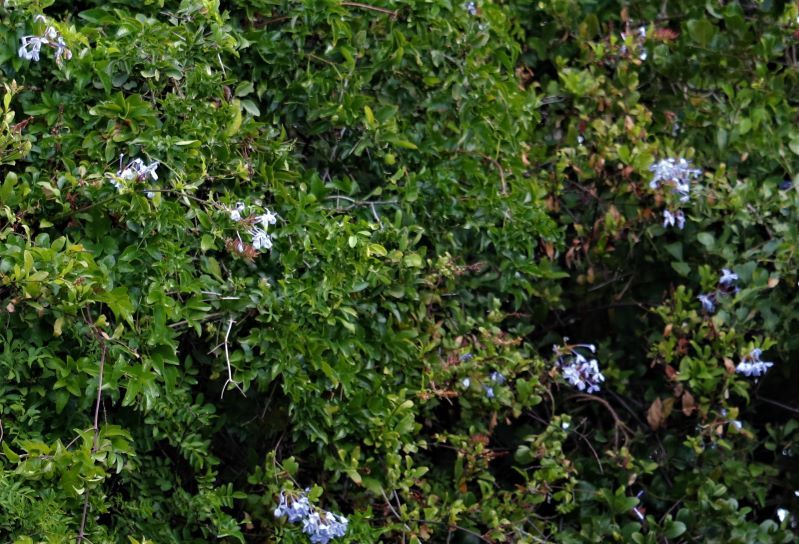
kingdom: Plantae
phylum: Tracheophyta
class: Magnoliopsida
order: Caryophyllales
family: Plumbaginaceae
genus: Plumbago
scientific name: Plumbago auriculata
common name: Cape leadwort
